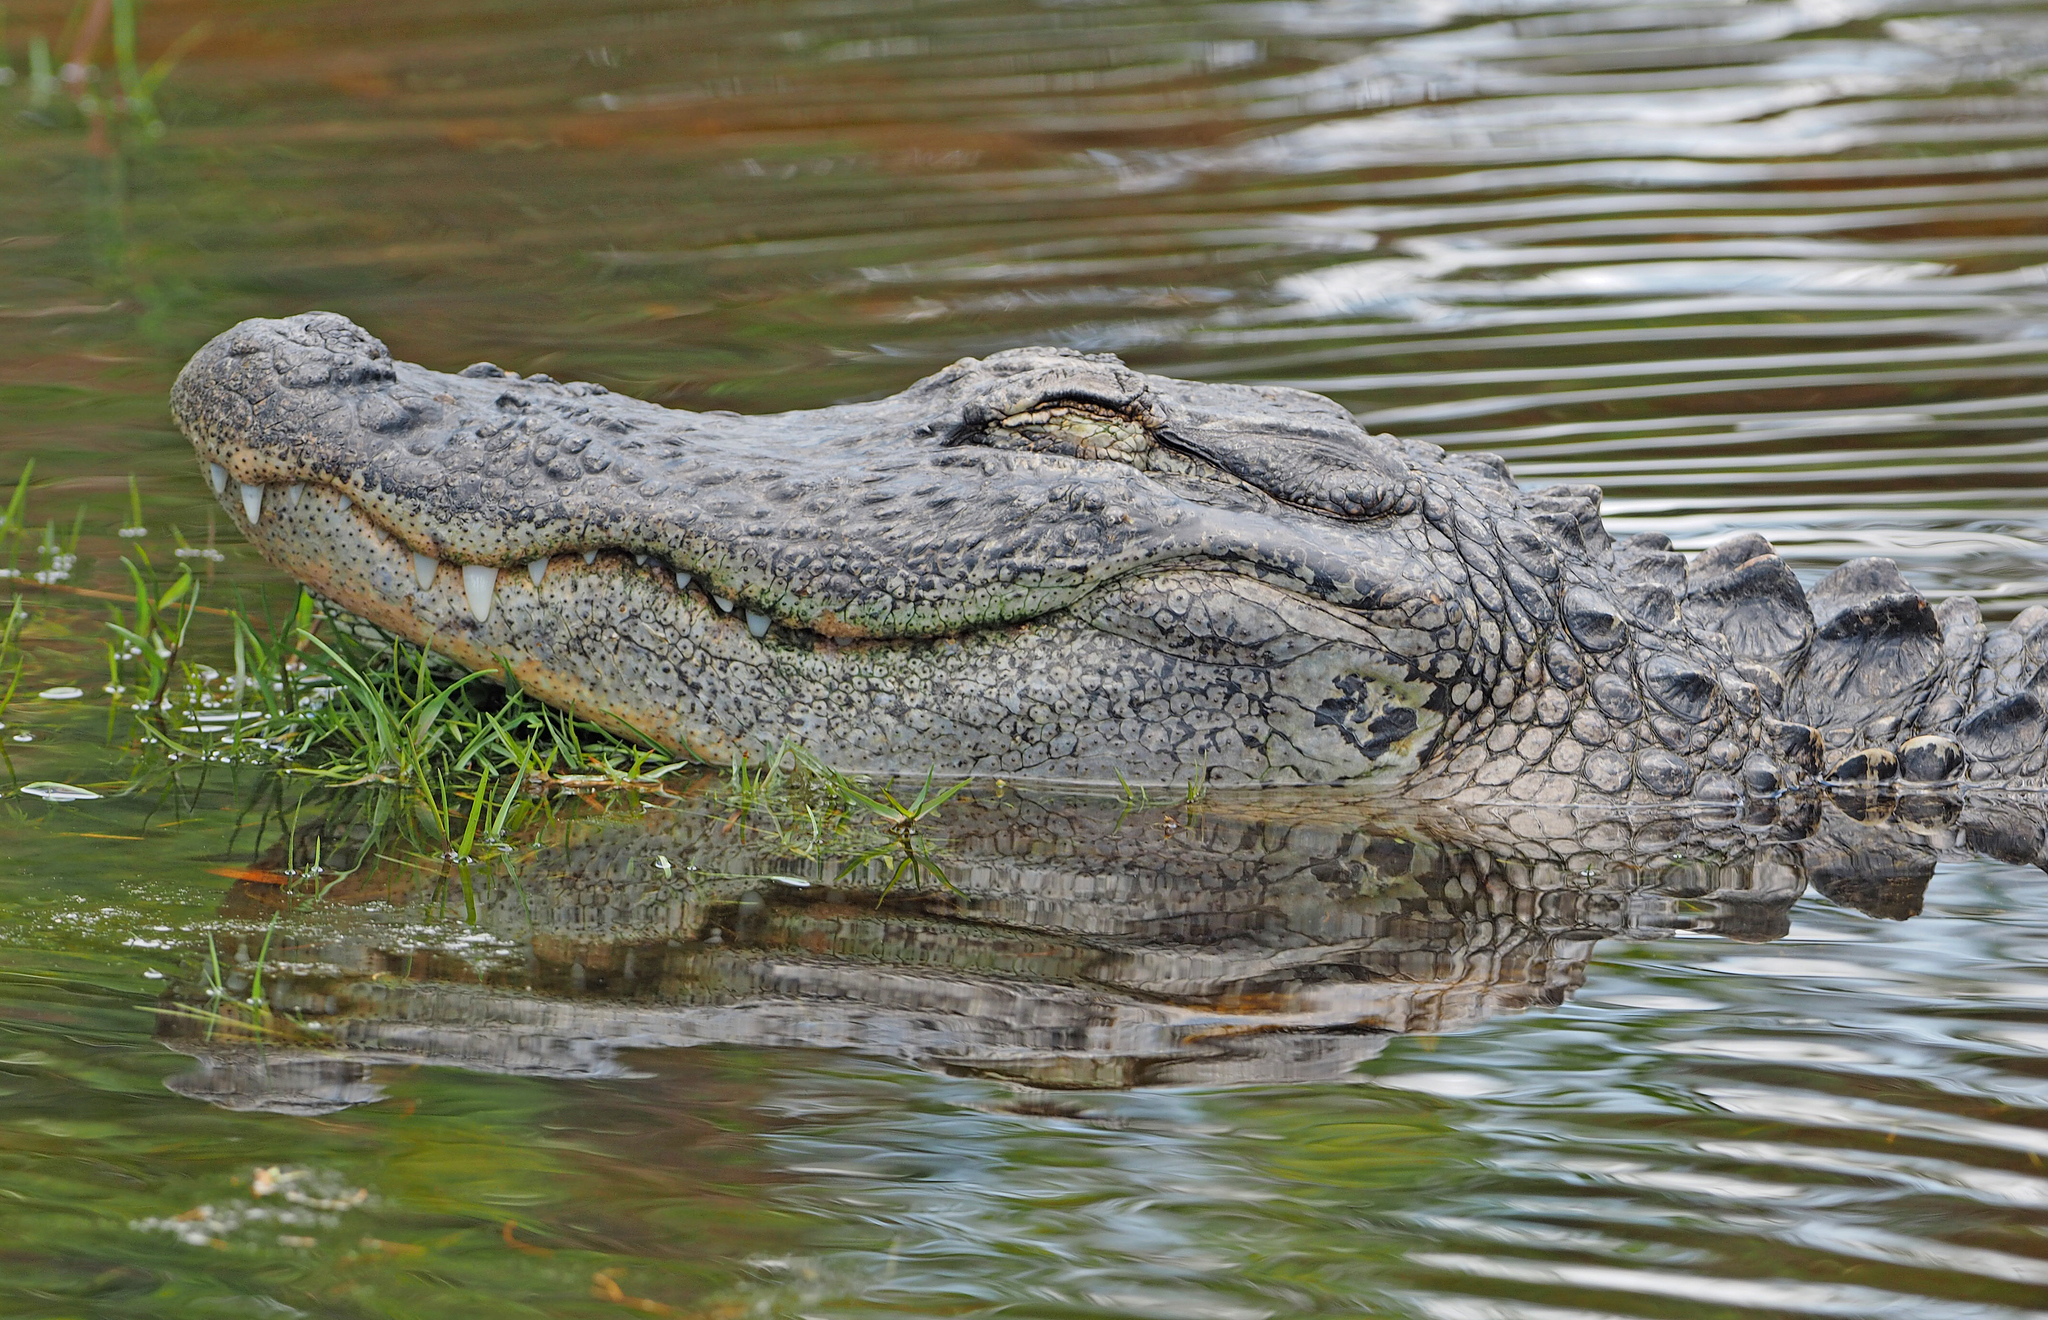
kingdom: Animalia
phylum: Chordata
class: Crocodylia
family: Alligatoridae
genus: Alligator
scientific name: Alligator mississippiensis
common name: American alligator
